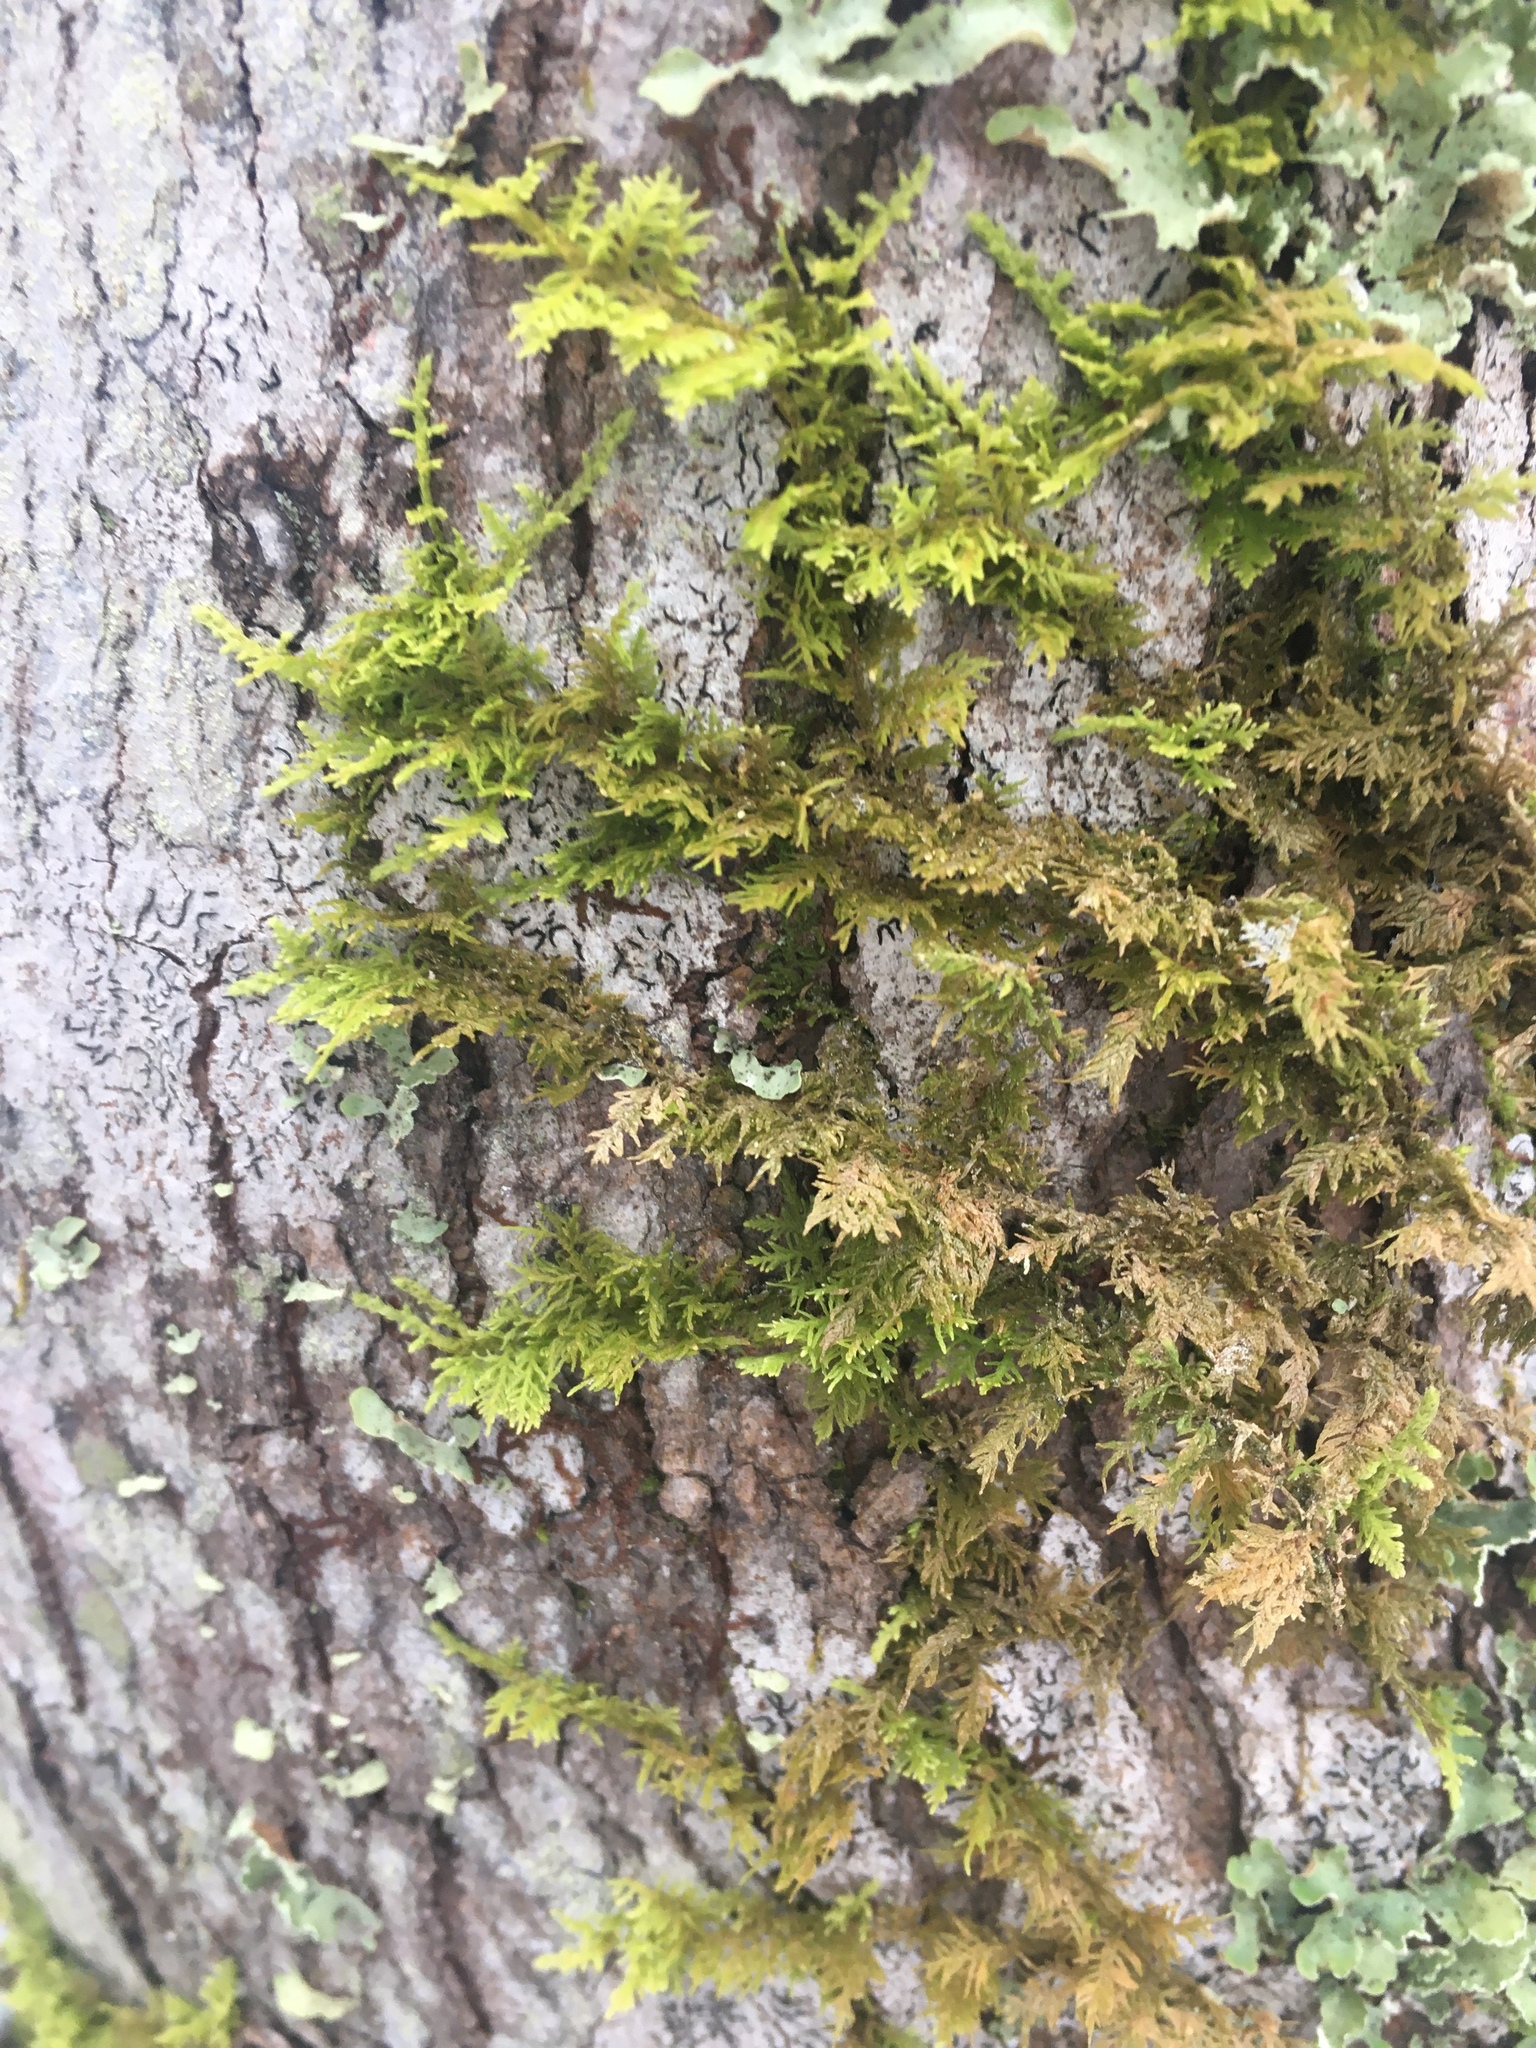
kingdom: Plantae
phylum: Bryophyta
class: Bryopsida
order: Hypnales
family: Thuidiaceae
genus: Thuidium
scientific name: Thuidium delicatulum
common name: Delicate fern moss
